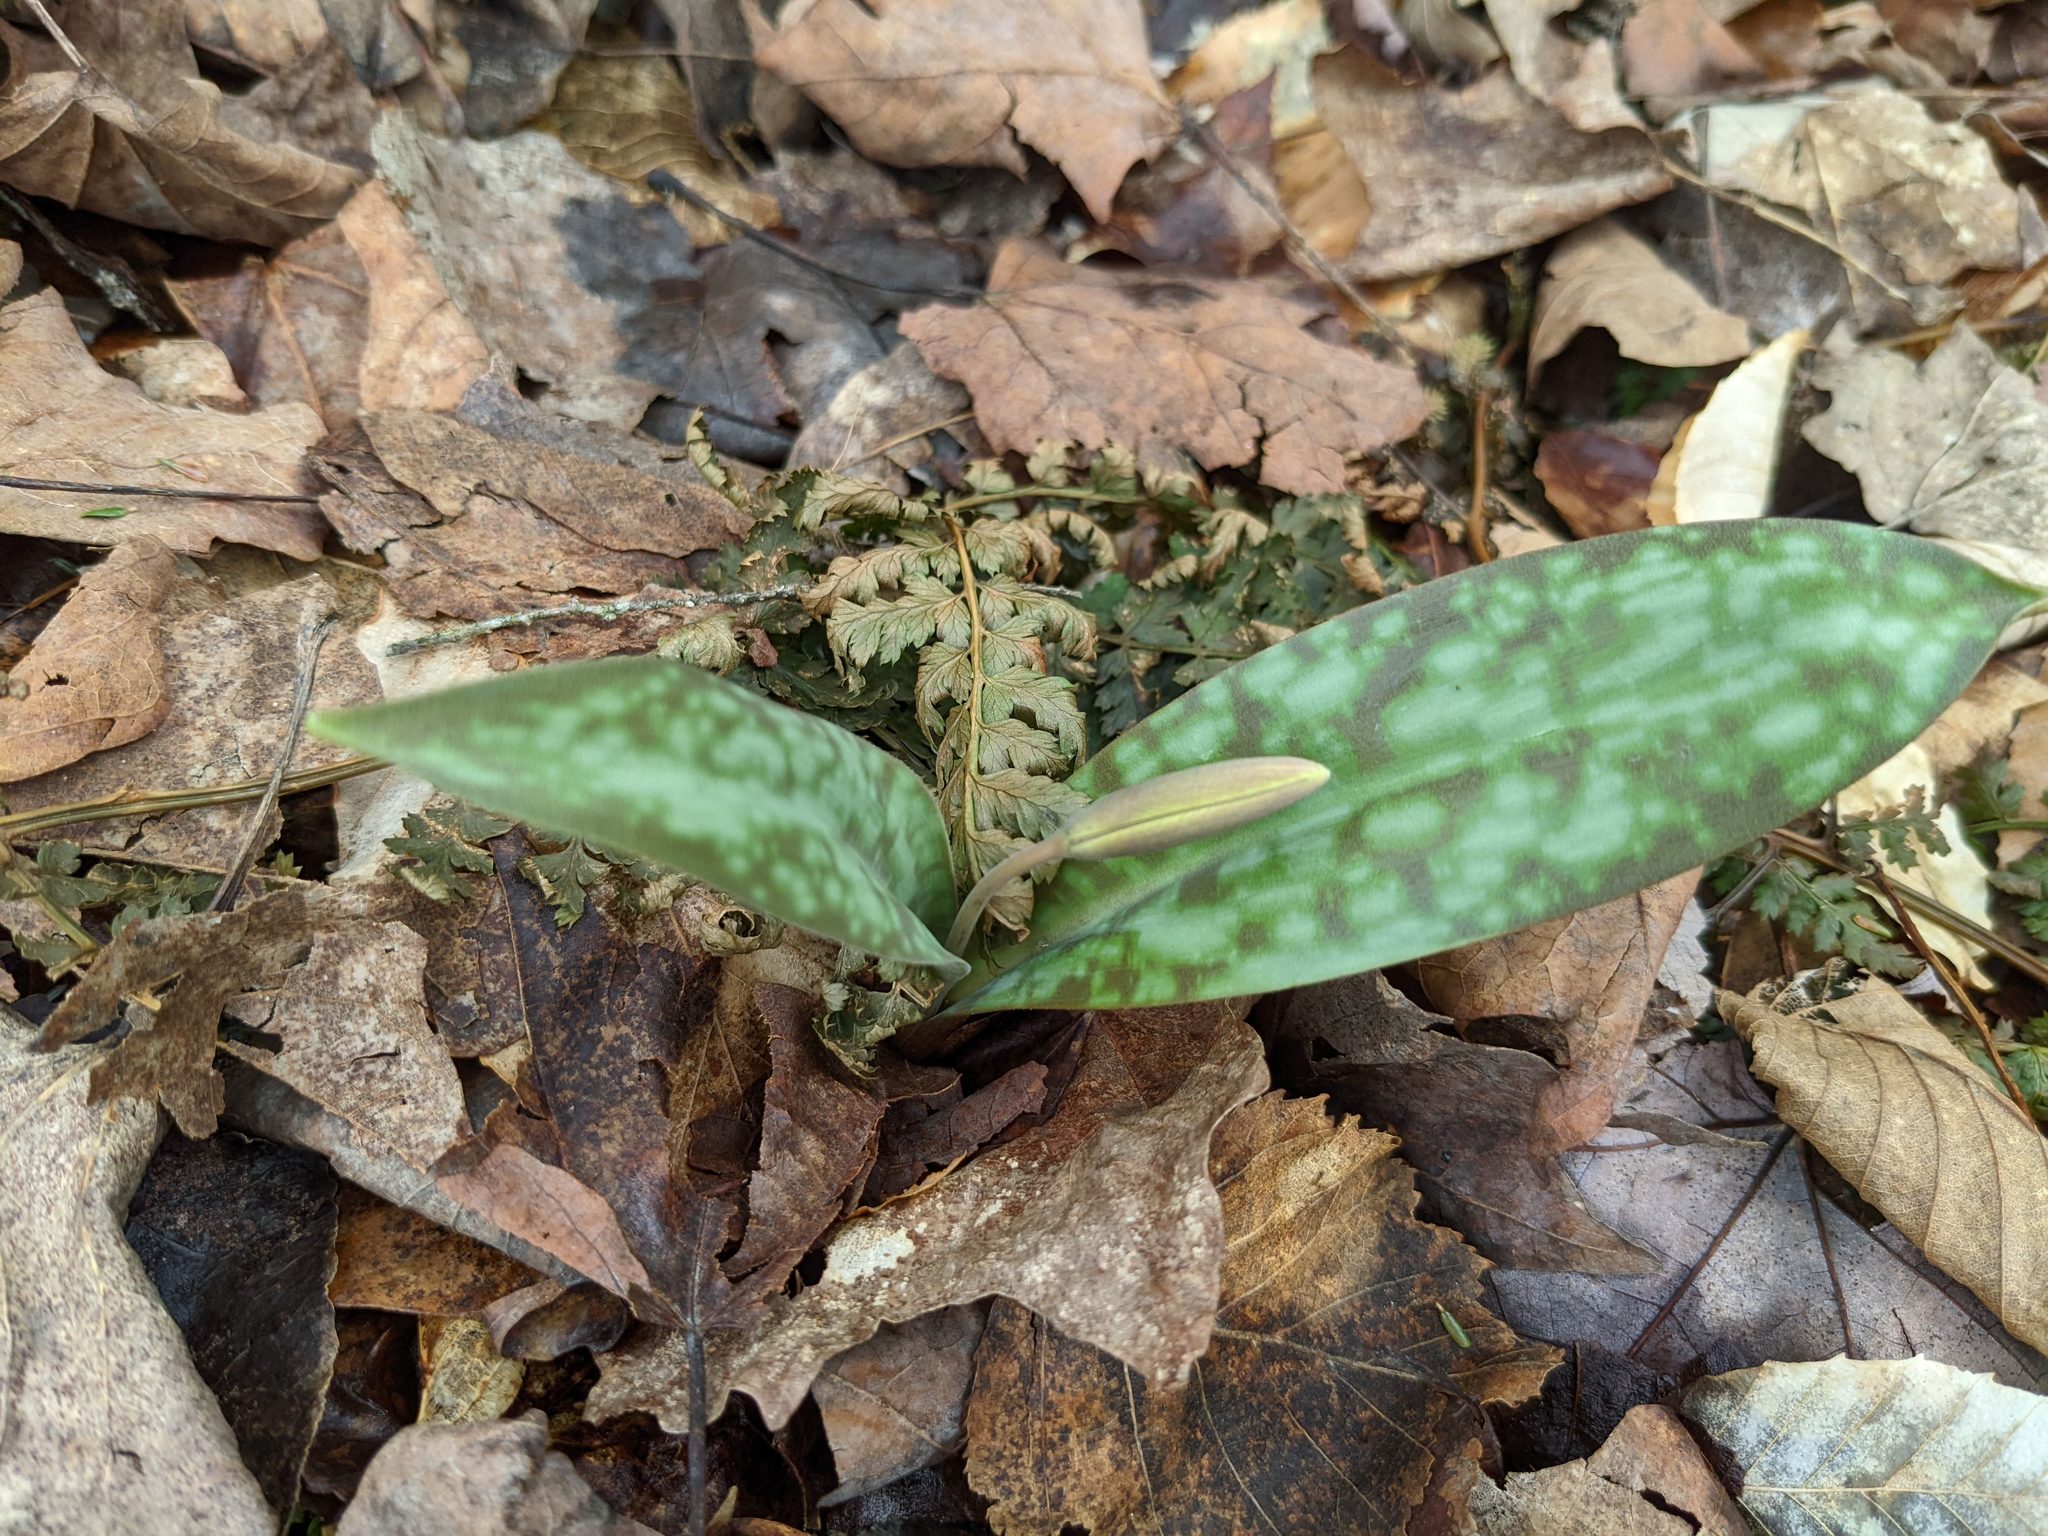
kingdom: Plantae
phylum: Tracheophyta
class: Liliopsida
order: Liliales
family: Liliaceae
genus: Erythronium
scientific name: Erythronium americanum
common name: Yellow adder's-tongue
